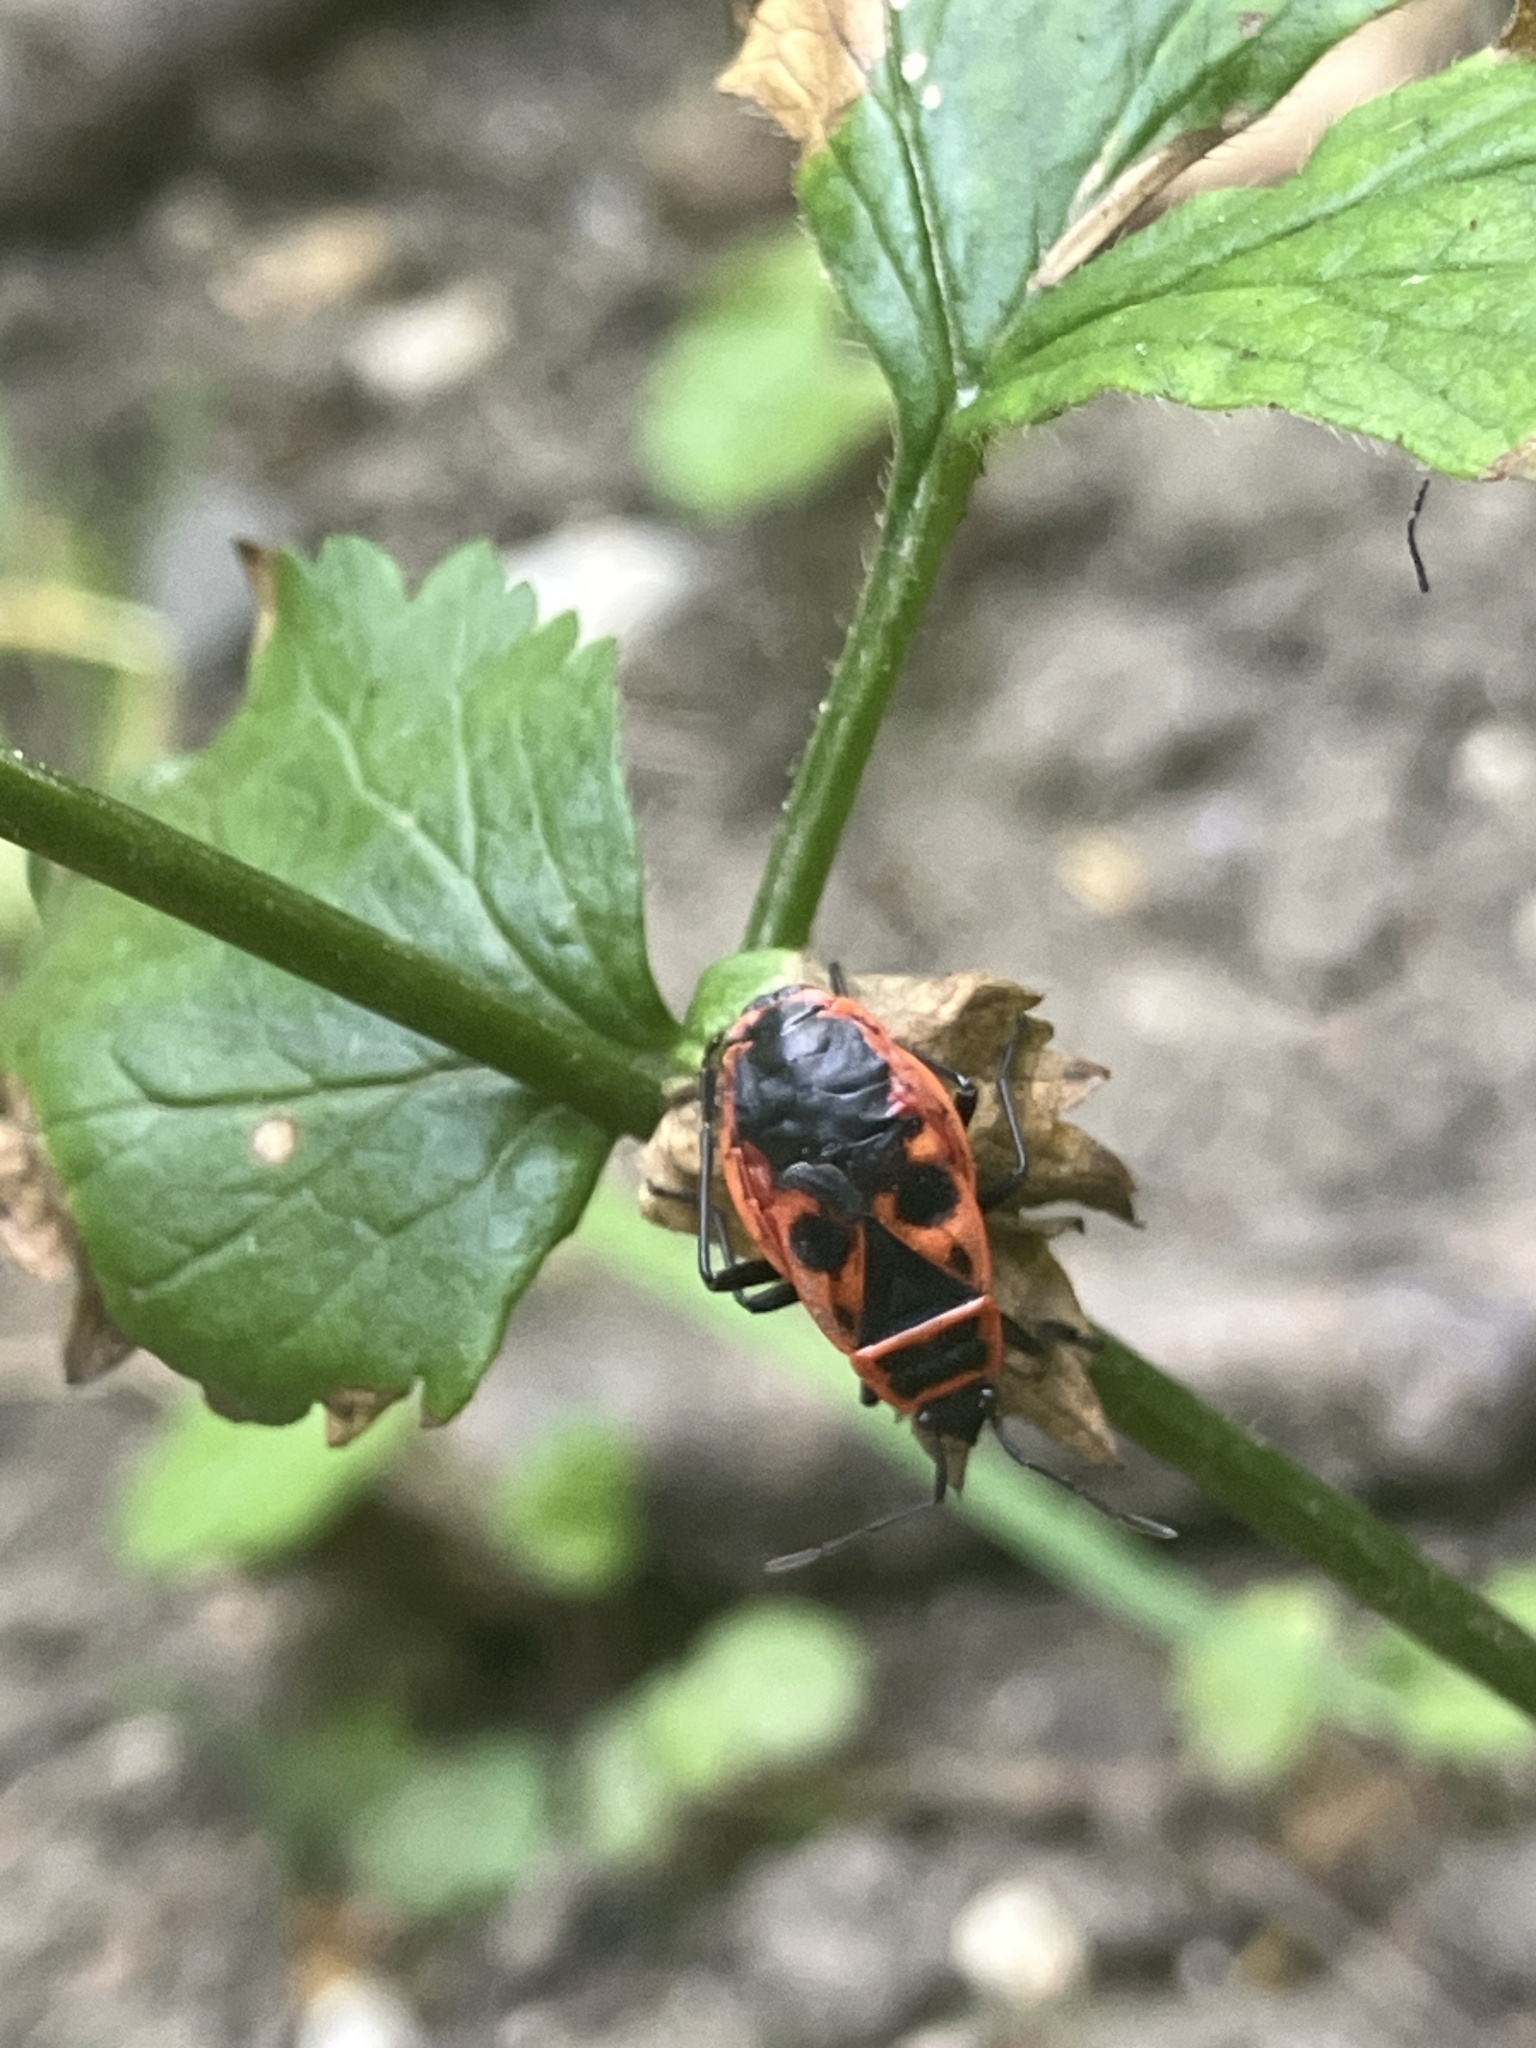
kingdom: Animalia
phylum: Arthropoda
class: Insecta
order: Hemiptera
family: Pyrrhocoridae
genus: Pyrrhocoris
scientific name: Pyrrhocoris apterus
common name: Firebug
